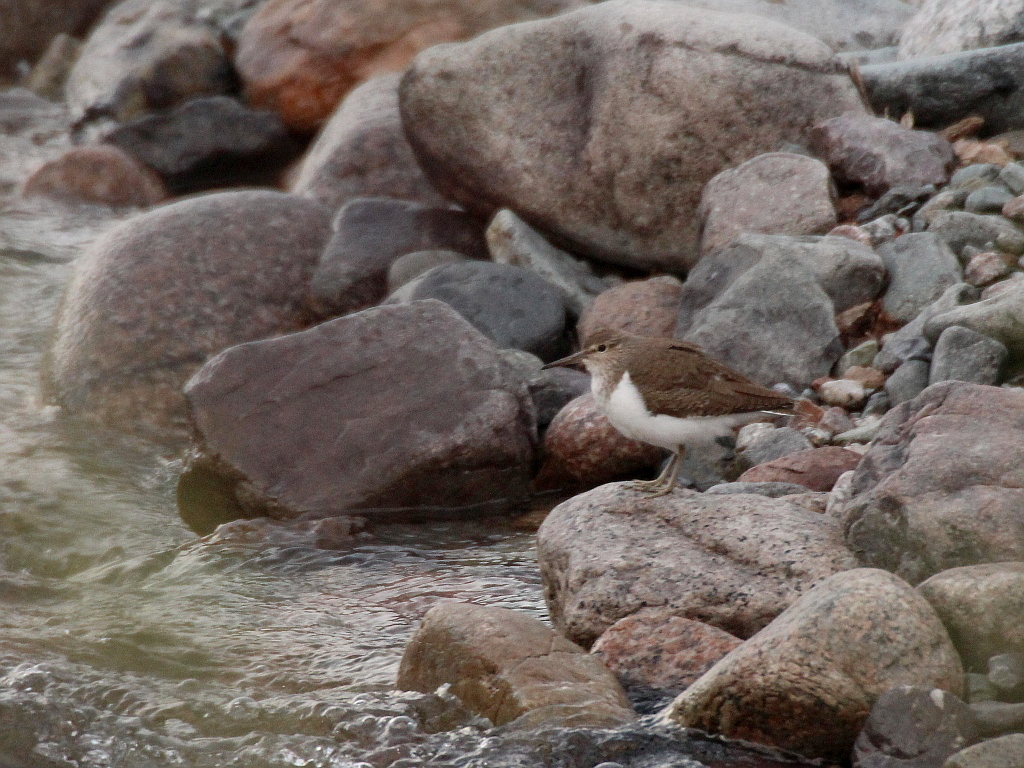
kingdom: Animalia
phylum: Chordata
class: Aves
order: Charadriiformes
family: Scolopacidae
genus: Actitis
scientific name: Actitis hypoleucos
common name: Common sandpiper
